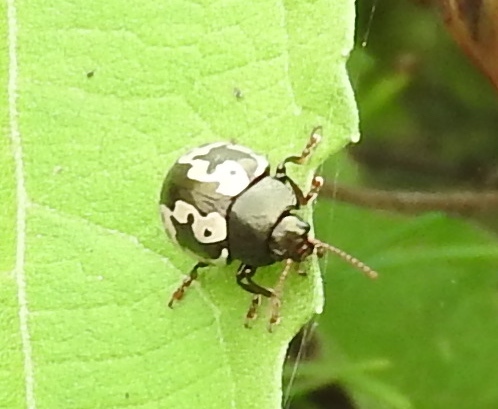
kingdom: Animalia
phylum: Arthropoda
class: Insecta
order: Coleoptera
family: Chrysomelidae
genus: Calligrapha
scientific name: Calligrapha intermedia
